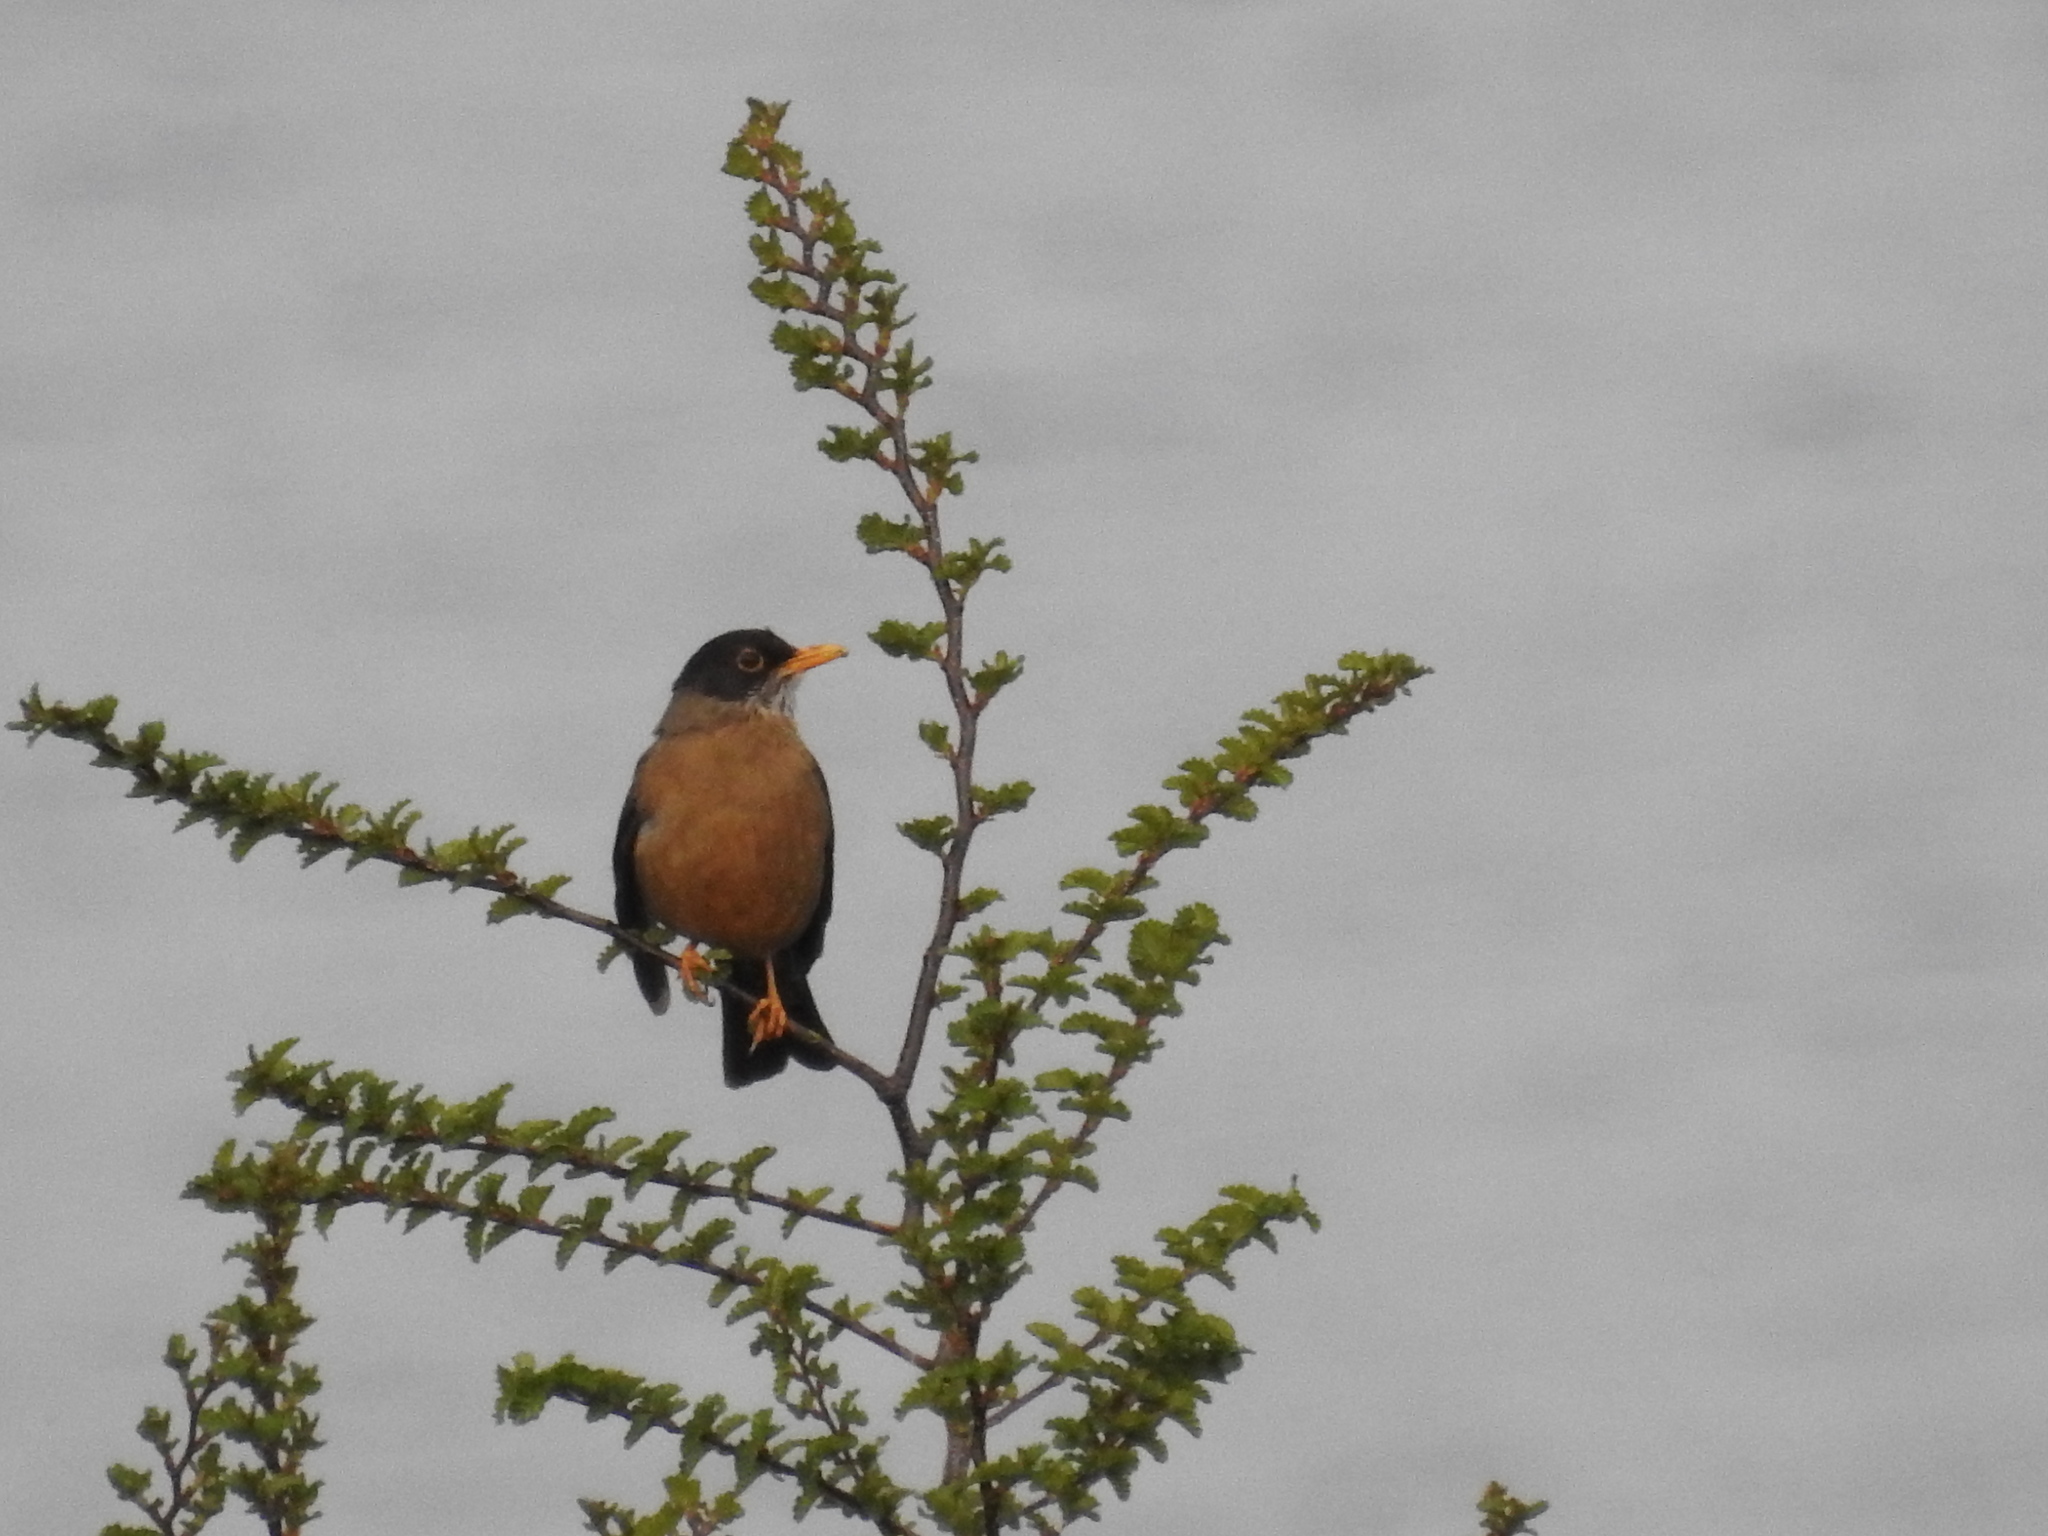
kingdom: Animalia
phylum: Chordata
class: Aves
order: Passeriformes
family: Turdidae
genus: Turdus
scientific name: Turdus falcklandii
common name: Austral thrush
